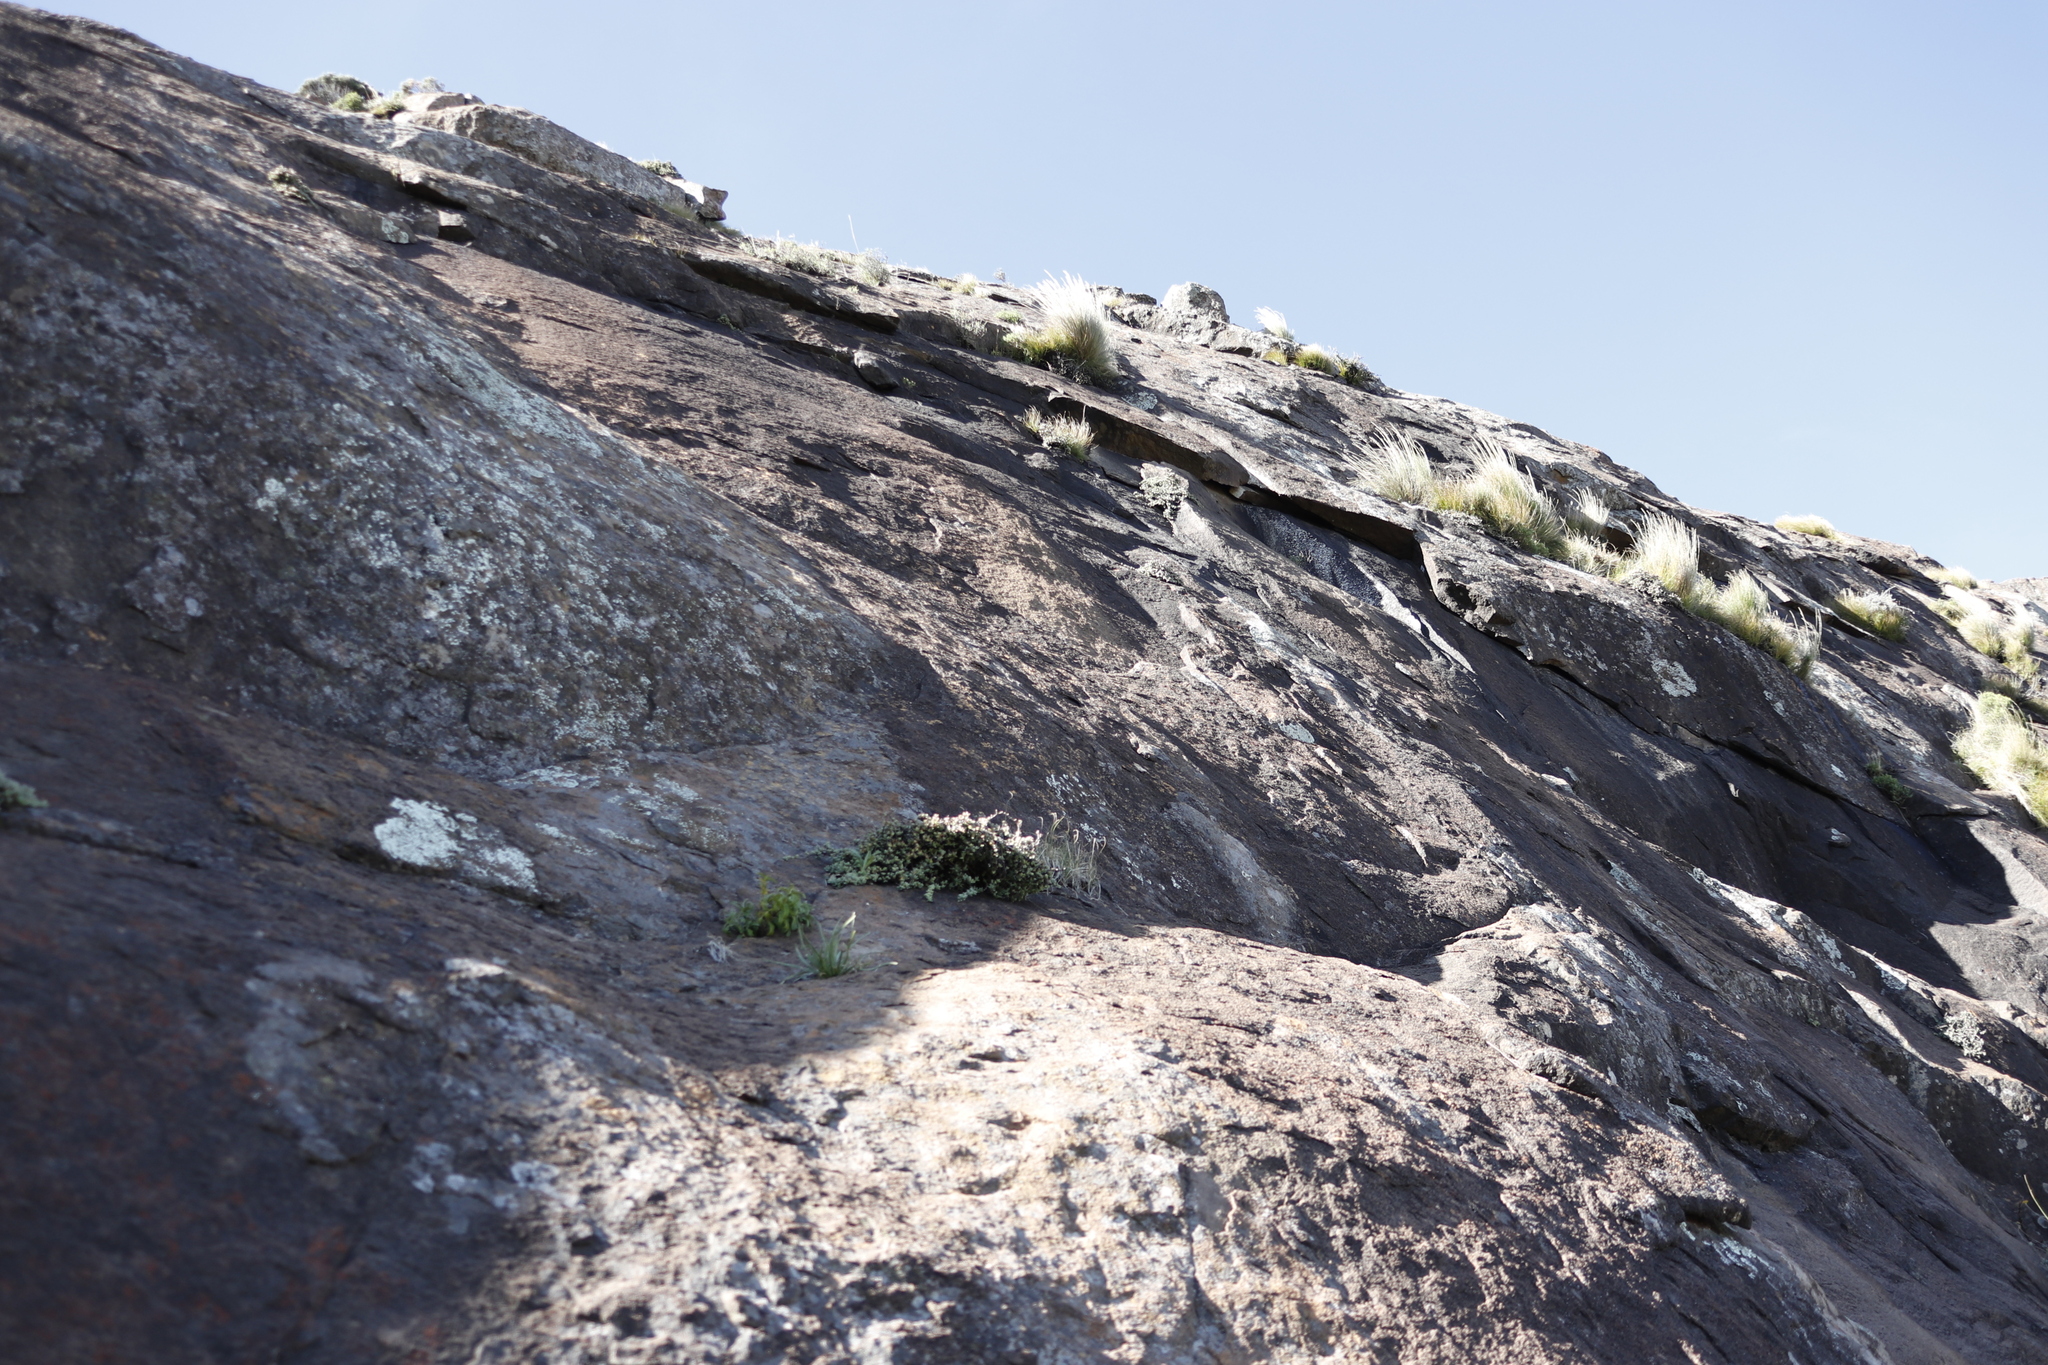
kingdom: Plantae
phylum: Tracheophyta
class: Magnoliopsida
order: Caryophyllales
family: Aizoaceae
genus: Ruschia
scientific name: Ruschia putterillii
